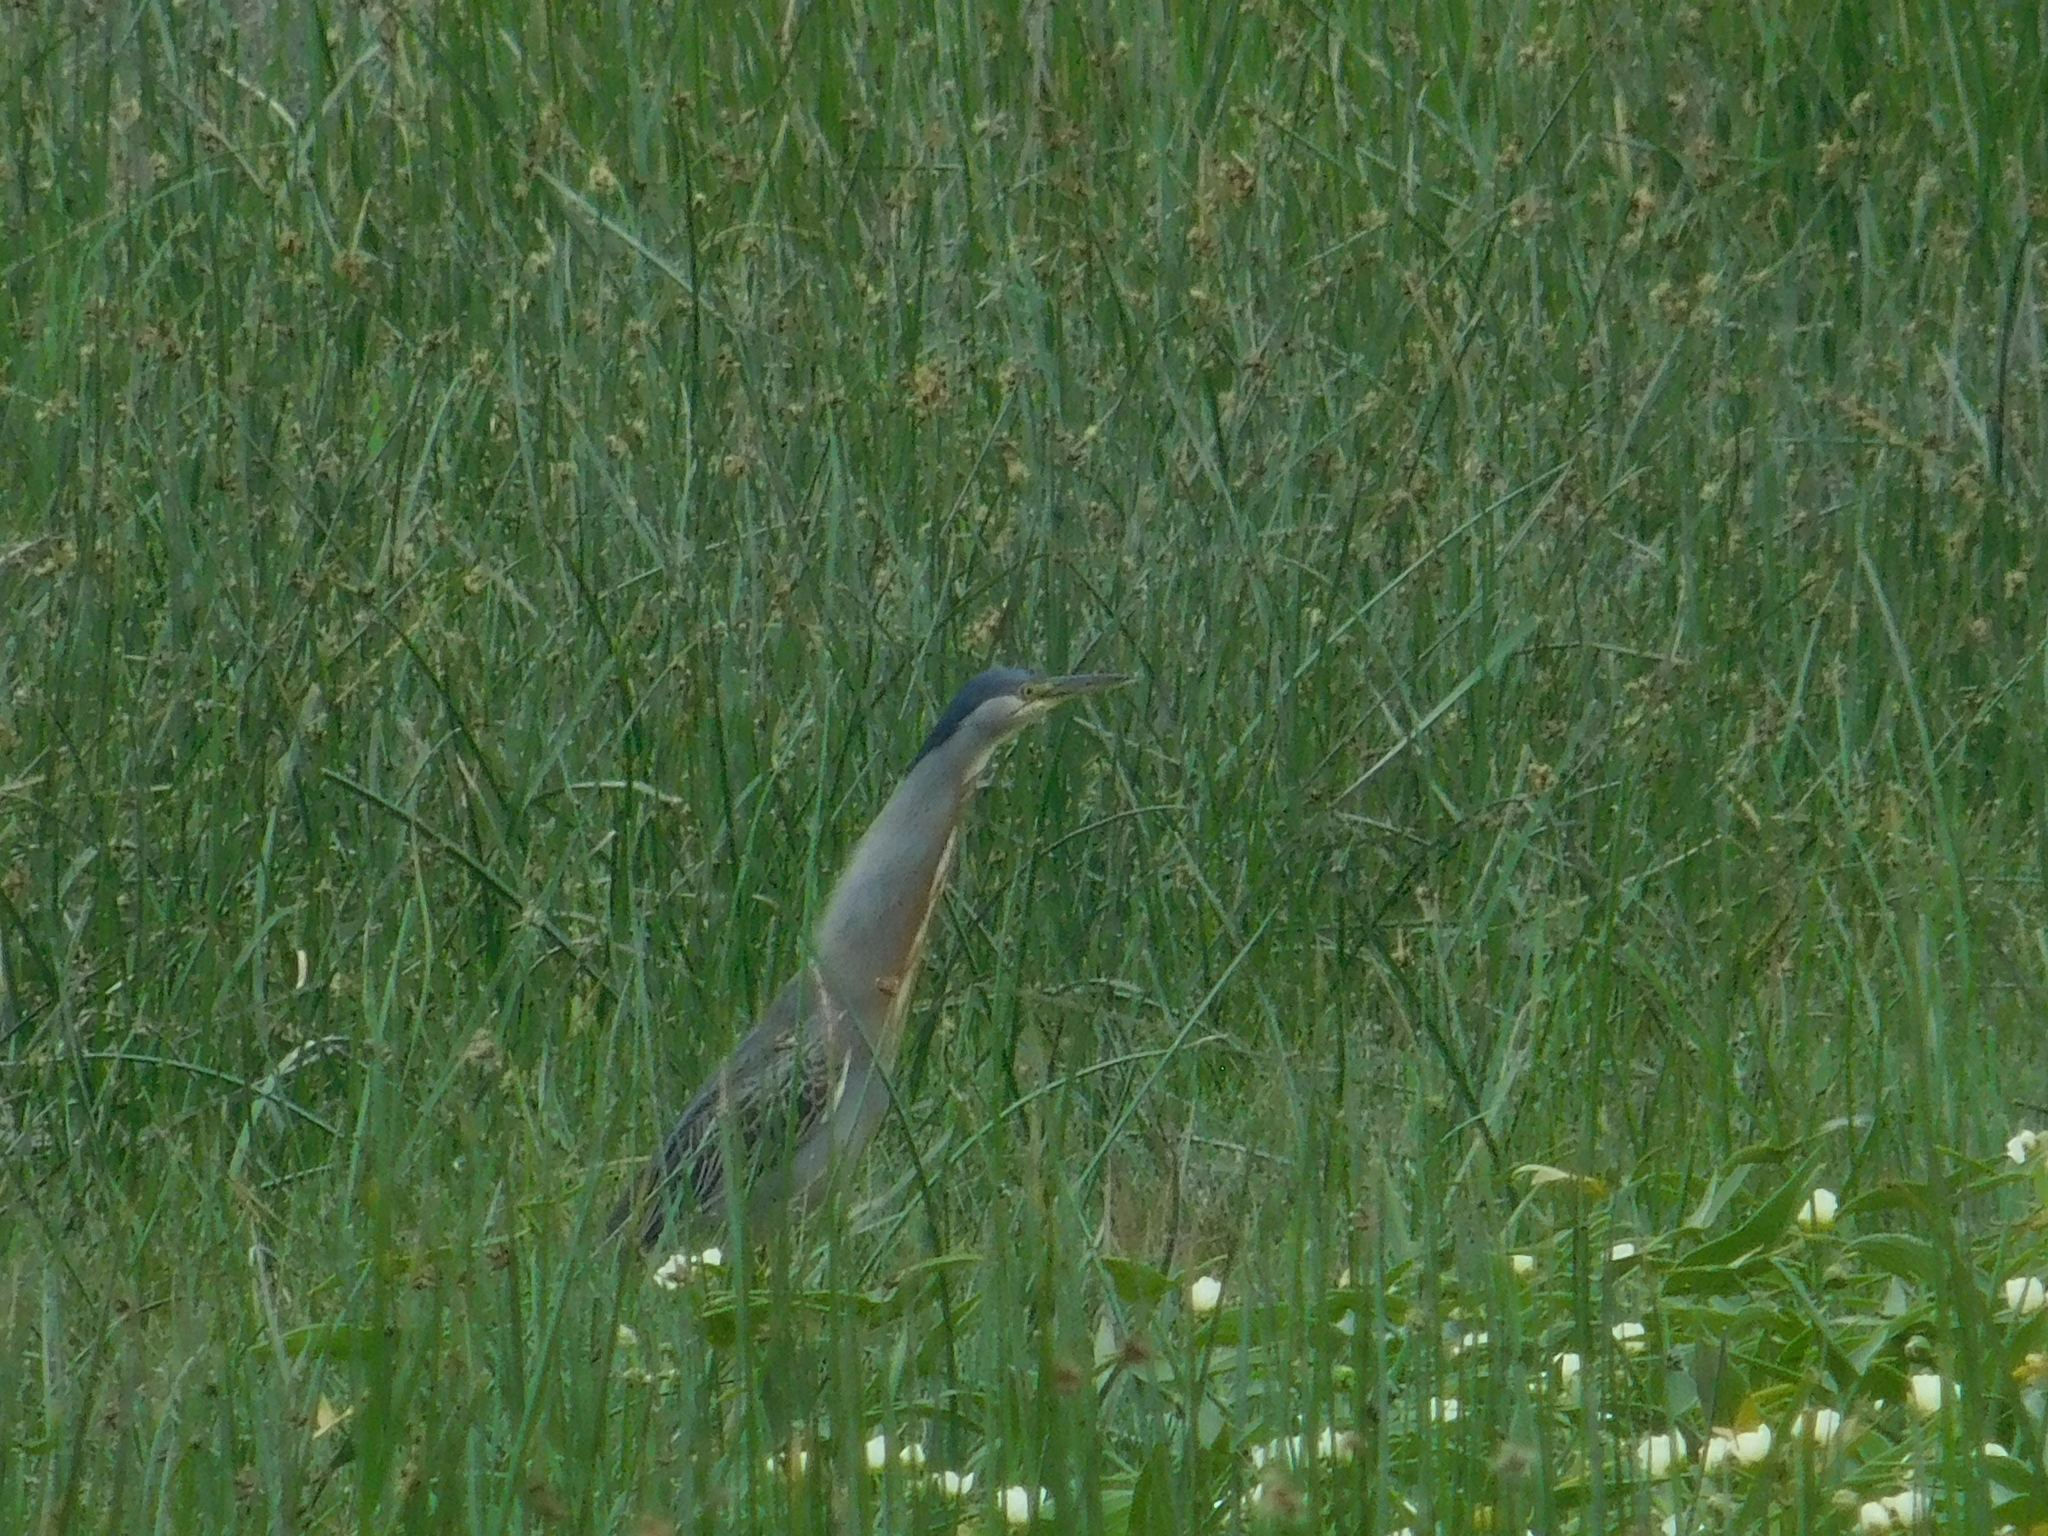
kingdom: Animalia
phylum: Chordata
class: Aves
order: Pelecaniformes
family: Ardeidae
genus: Butorides
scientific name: Butorides striata
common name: Striated heron
